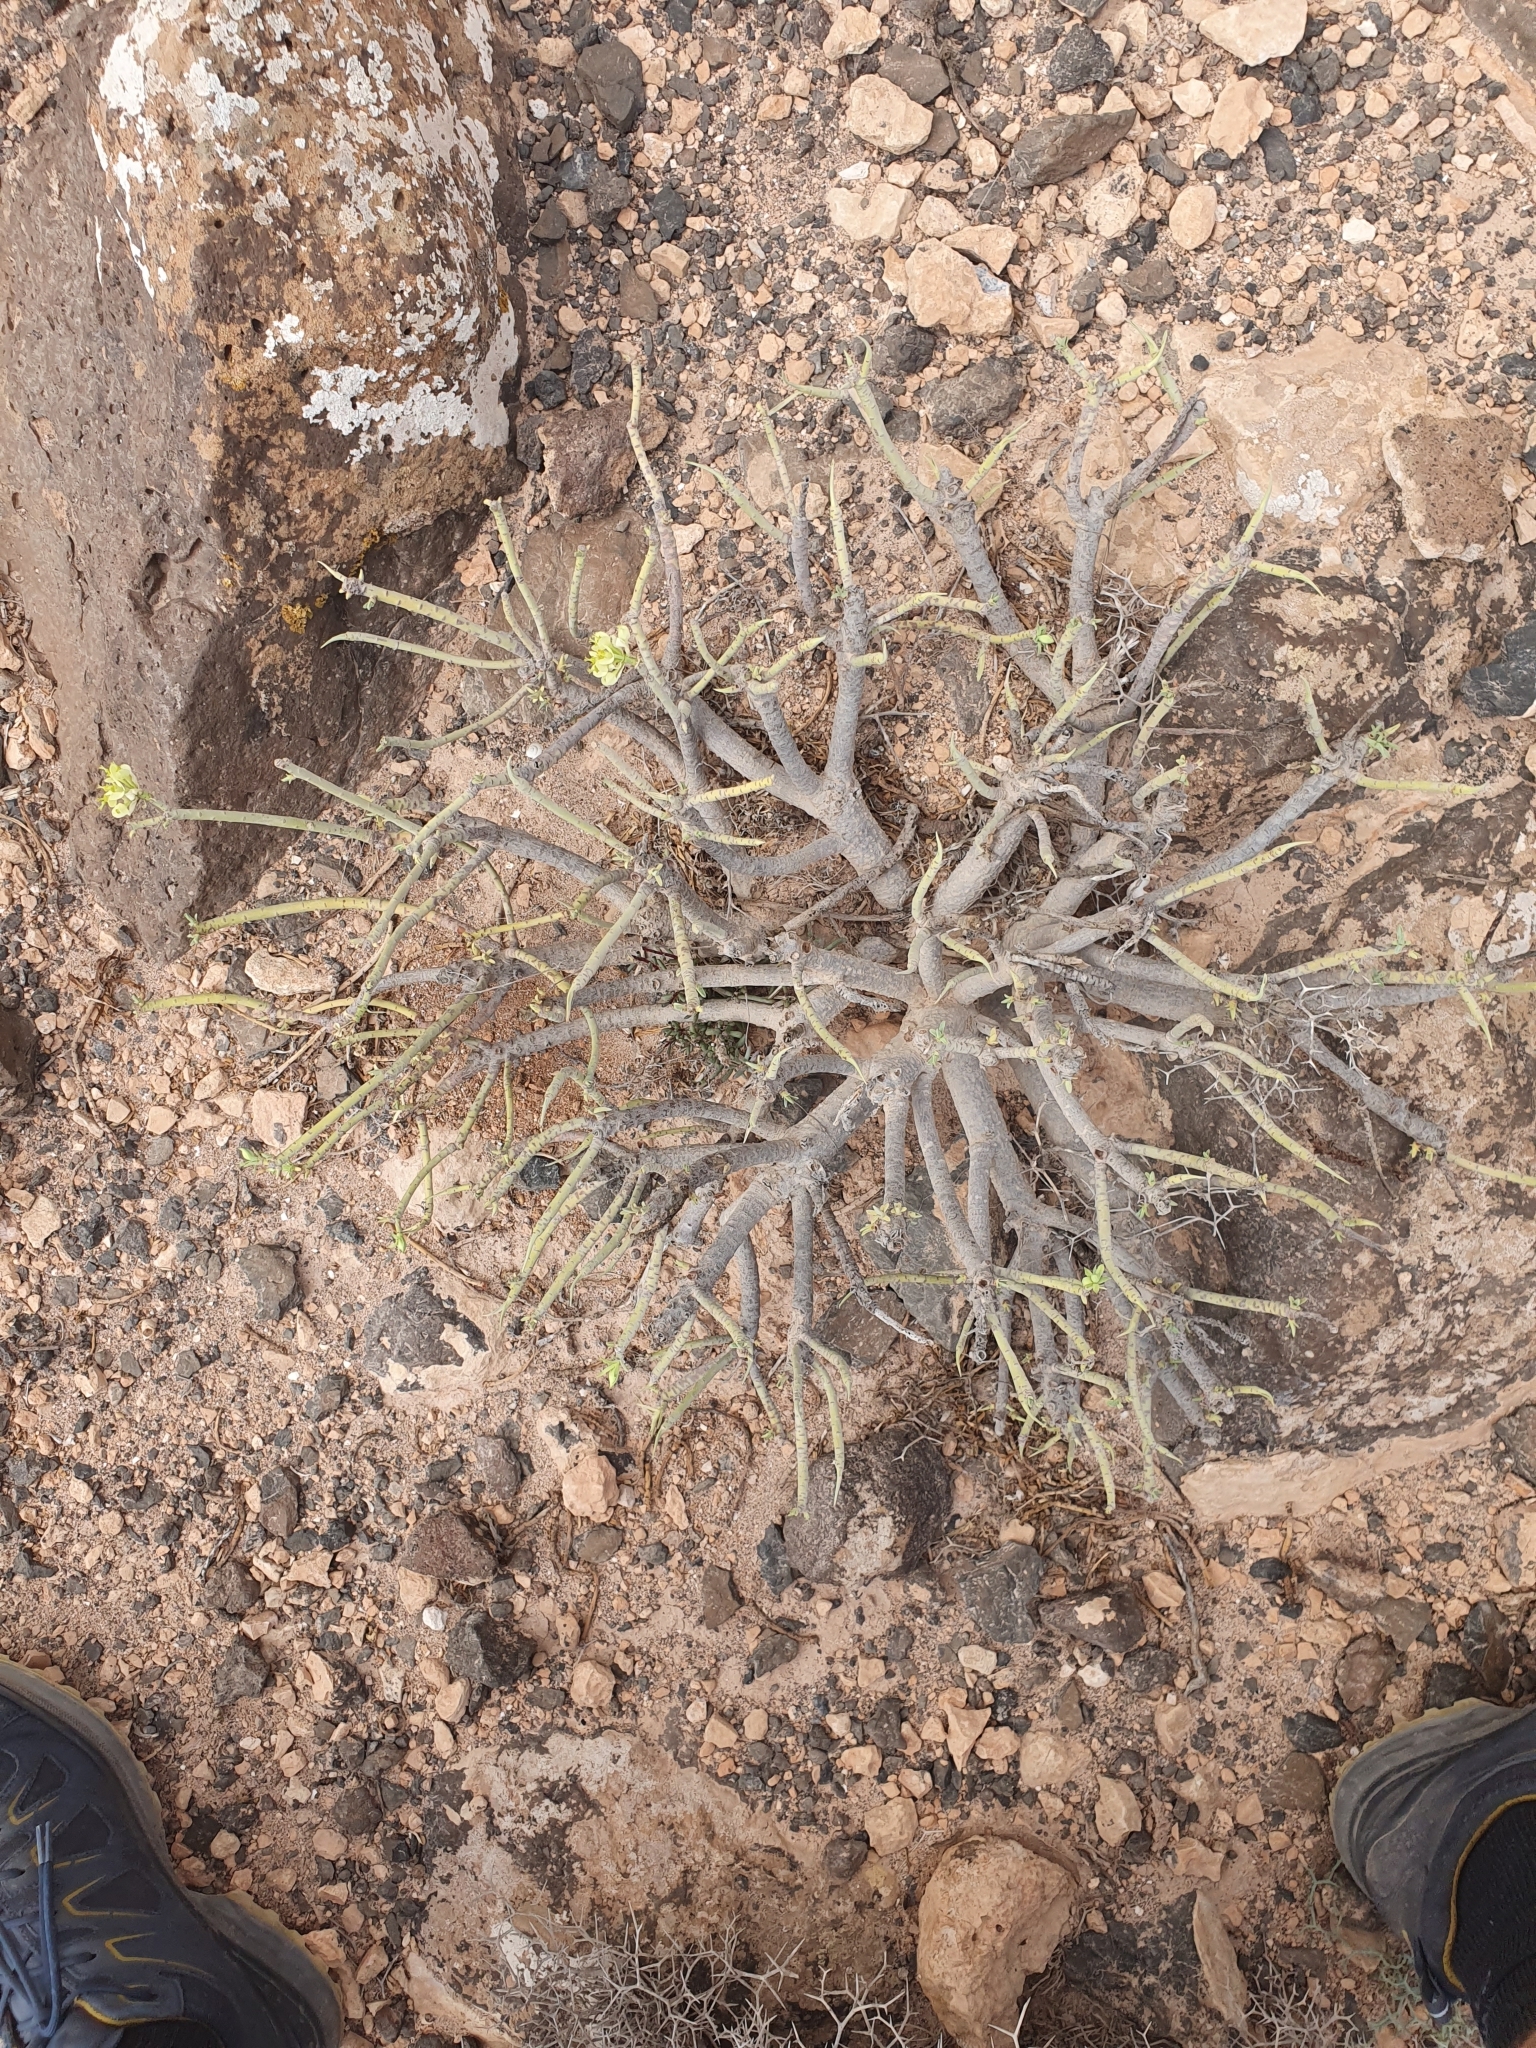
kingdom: Plantae
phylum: Tracheophyta
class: Magnoliopsida
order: Malpighiales
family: Euphorbiaceae
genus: Euphorbia
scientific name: Euphorbia regis-jubae
